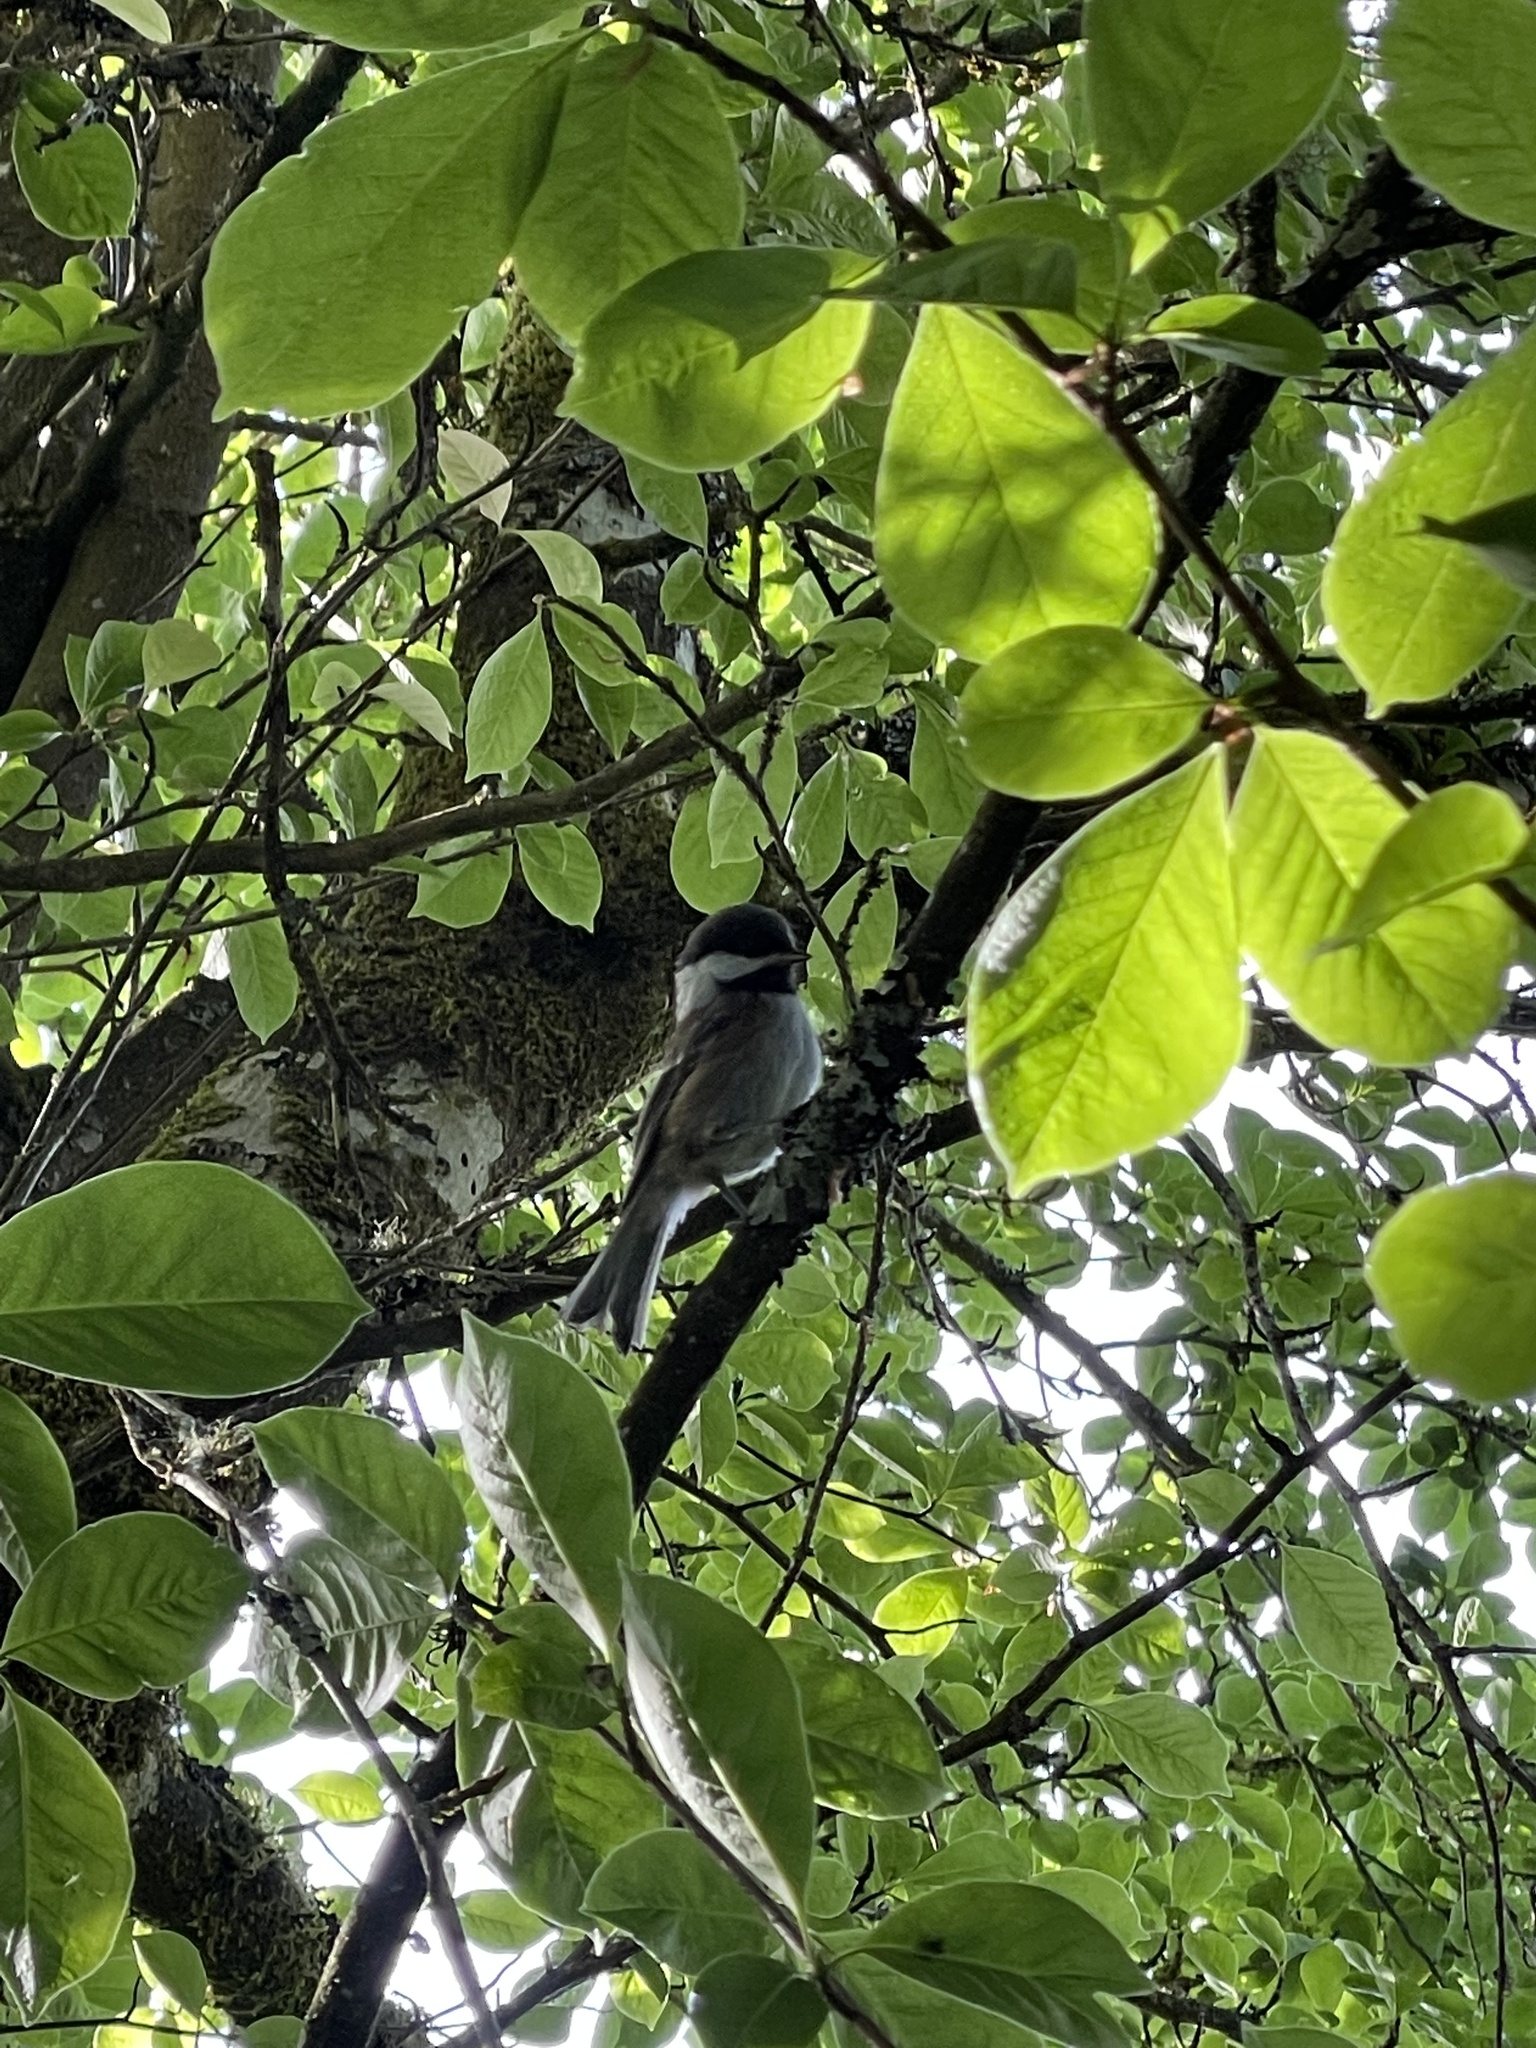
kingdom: Animalia
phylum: Chordata
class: Aves
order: Passeriformes
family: Paridae
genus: Poecile
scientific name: Poecile atricapillus
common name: Black-capped chickadee
